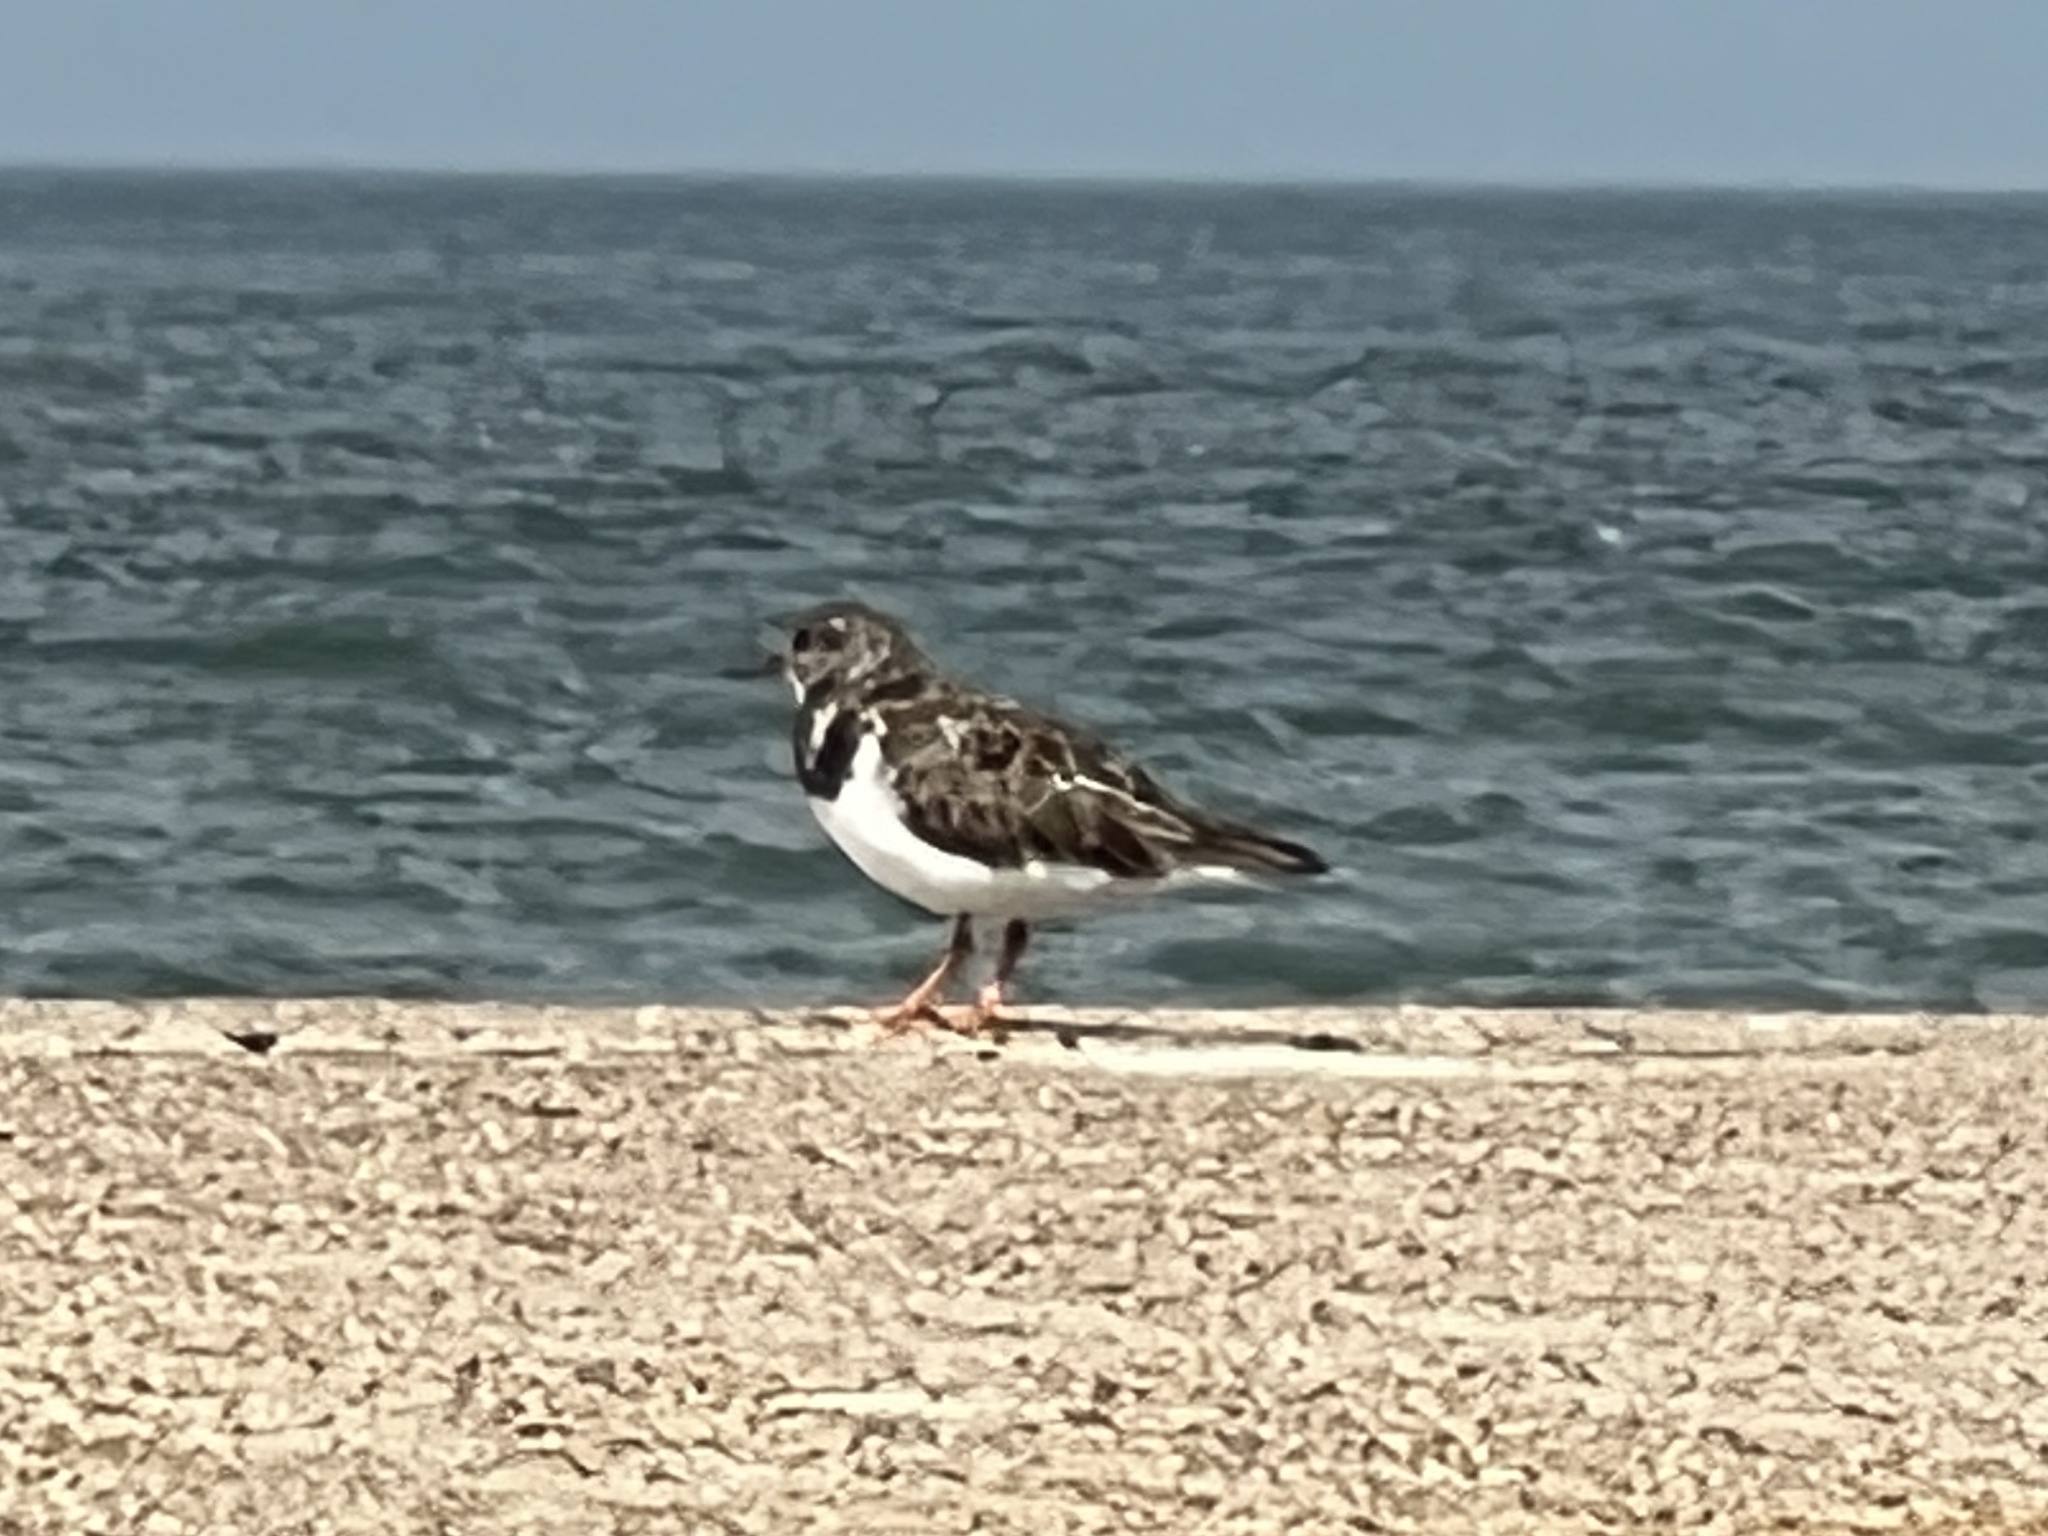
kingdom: Animalia
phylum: Chordata
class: Aves
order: Charadriiformes
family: Scolopacidae
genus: Arenaria
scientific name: Arenaria interpres
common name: Ruddy turnstone
